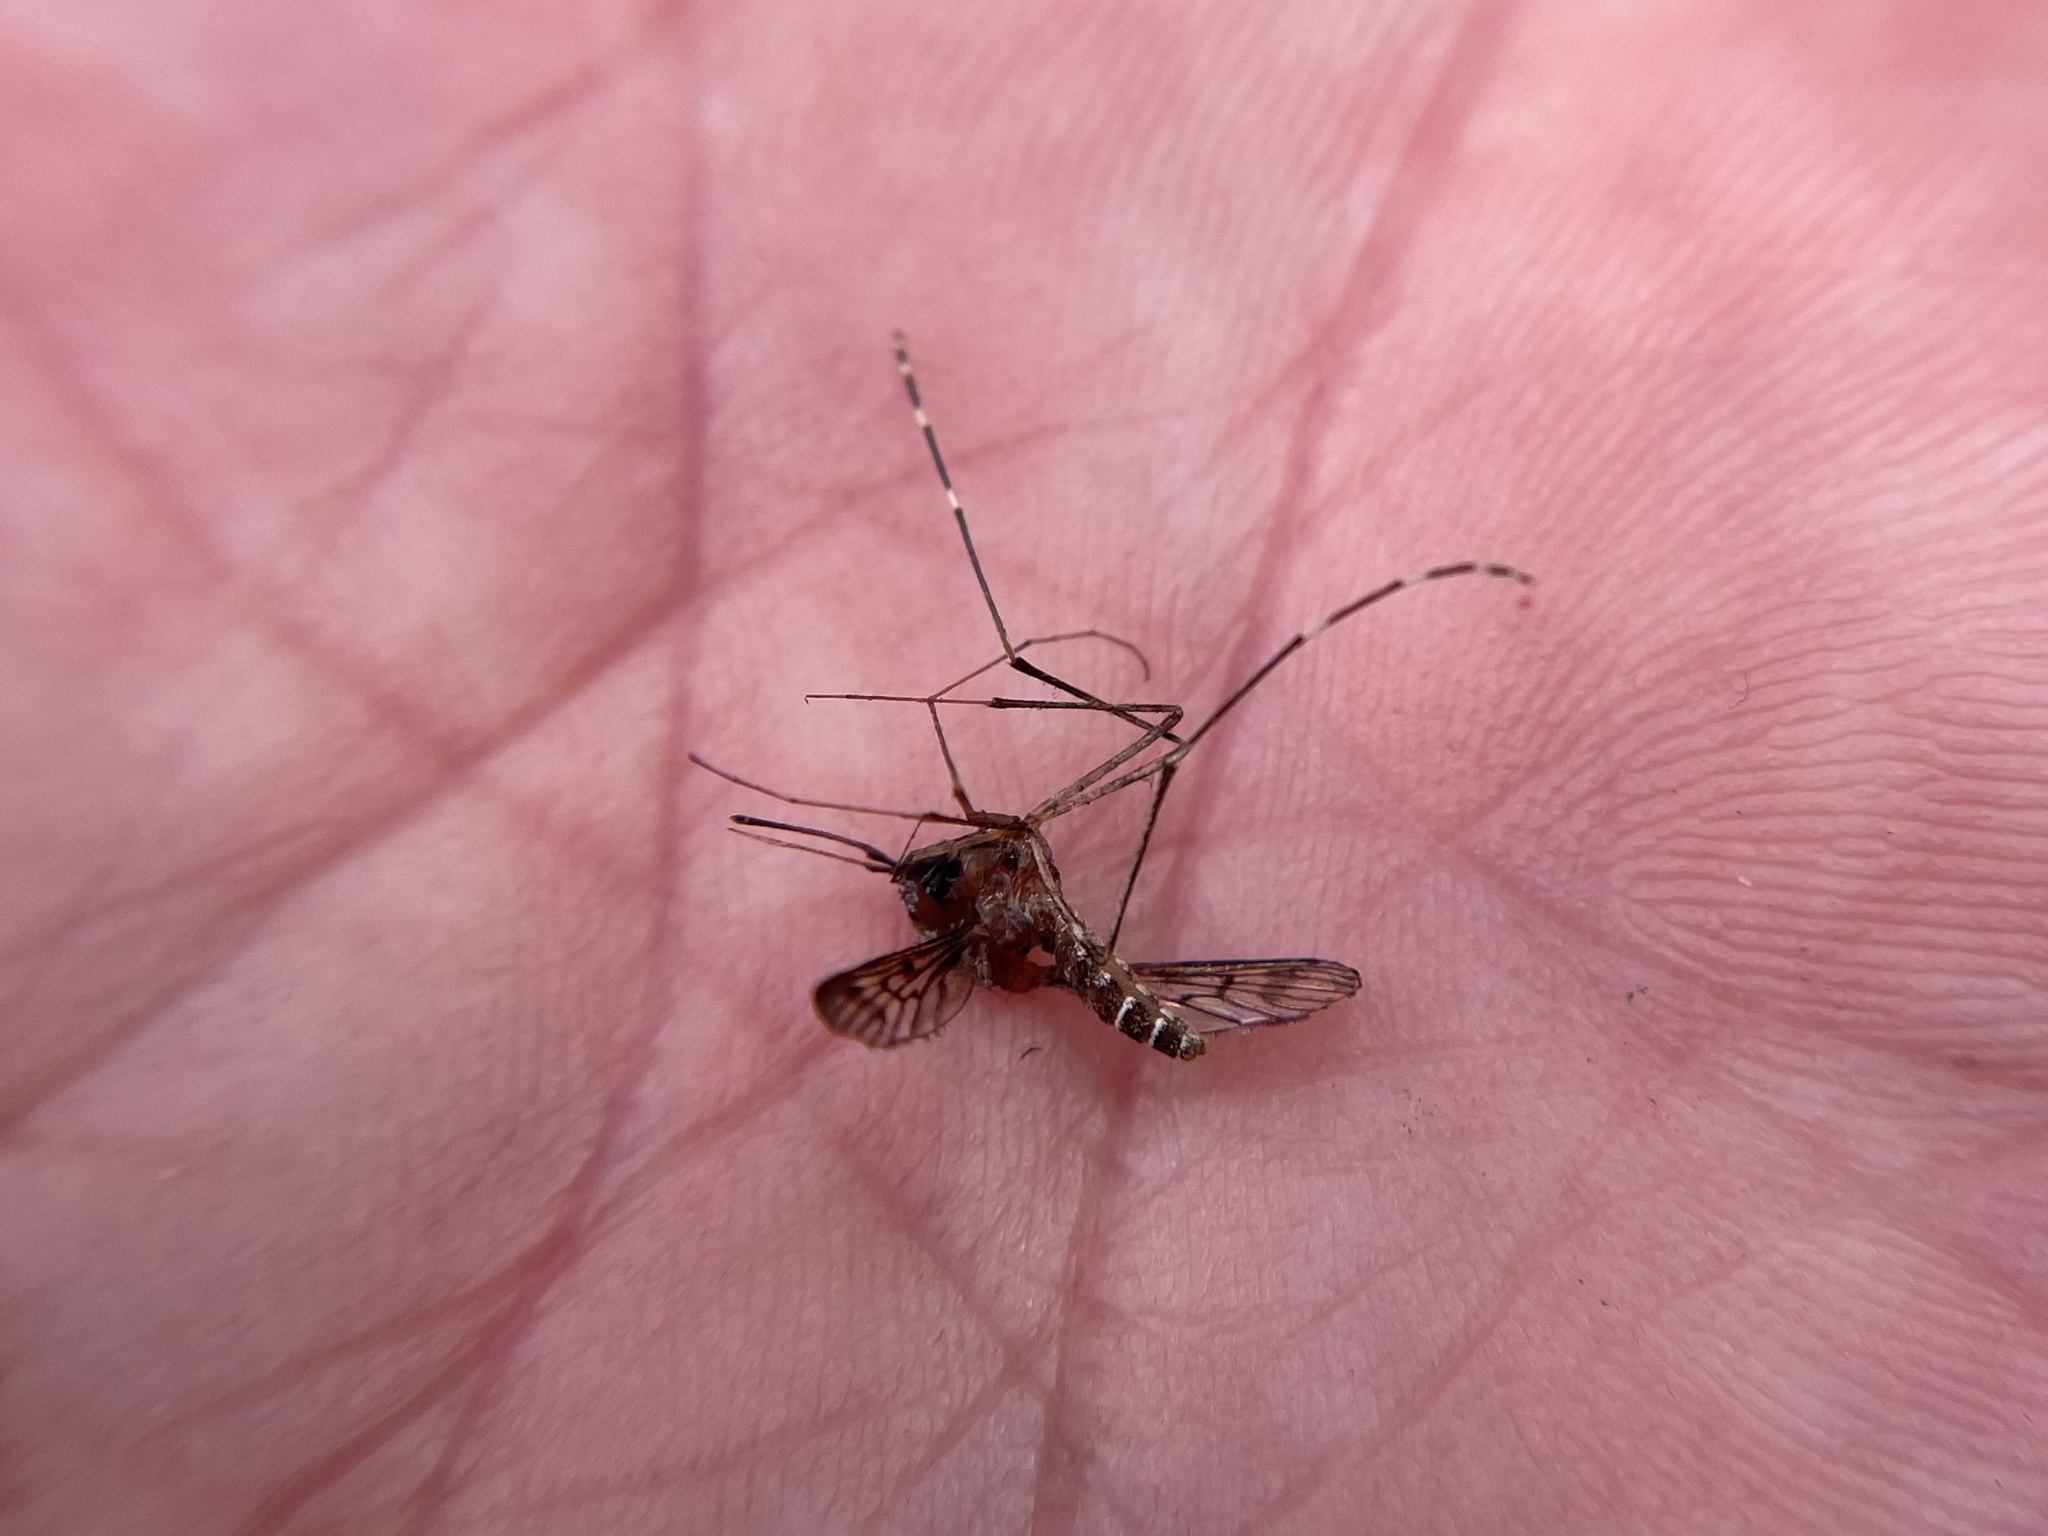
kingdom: Animalia
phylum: Arthropoda
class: Insecta
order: Diptera
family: Culicidae
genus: Culiseta
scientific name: Culiseta particeps
